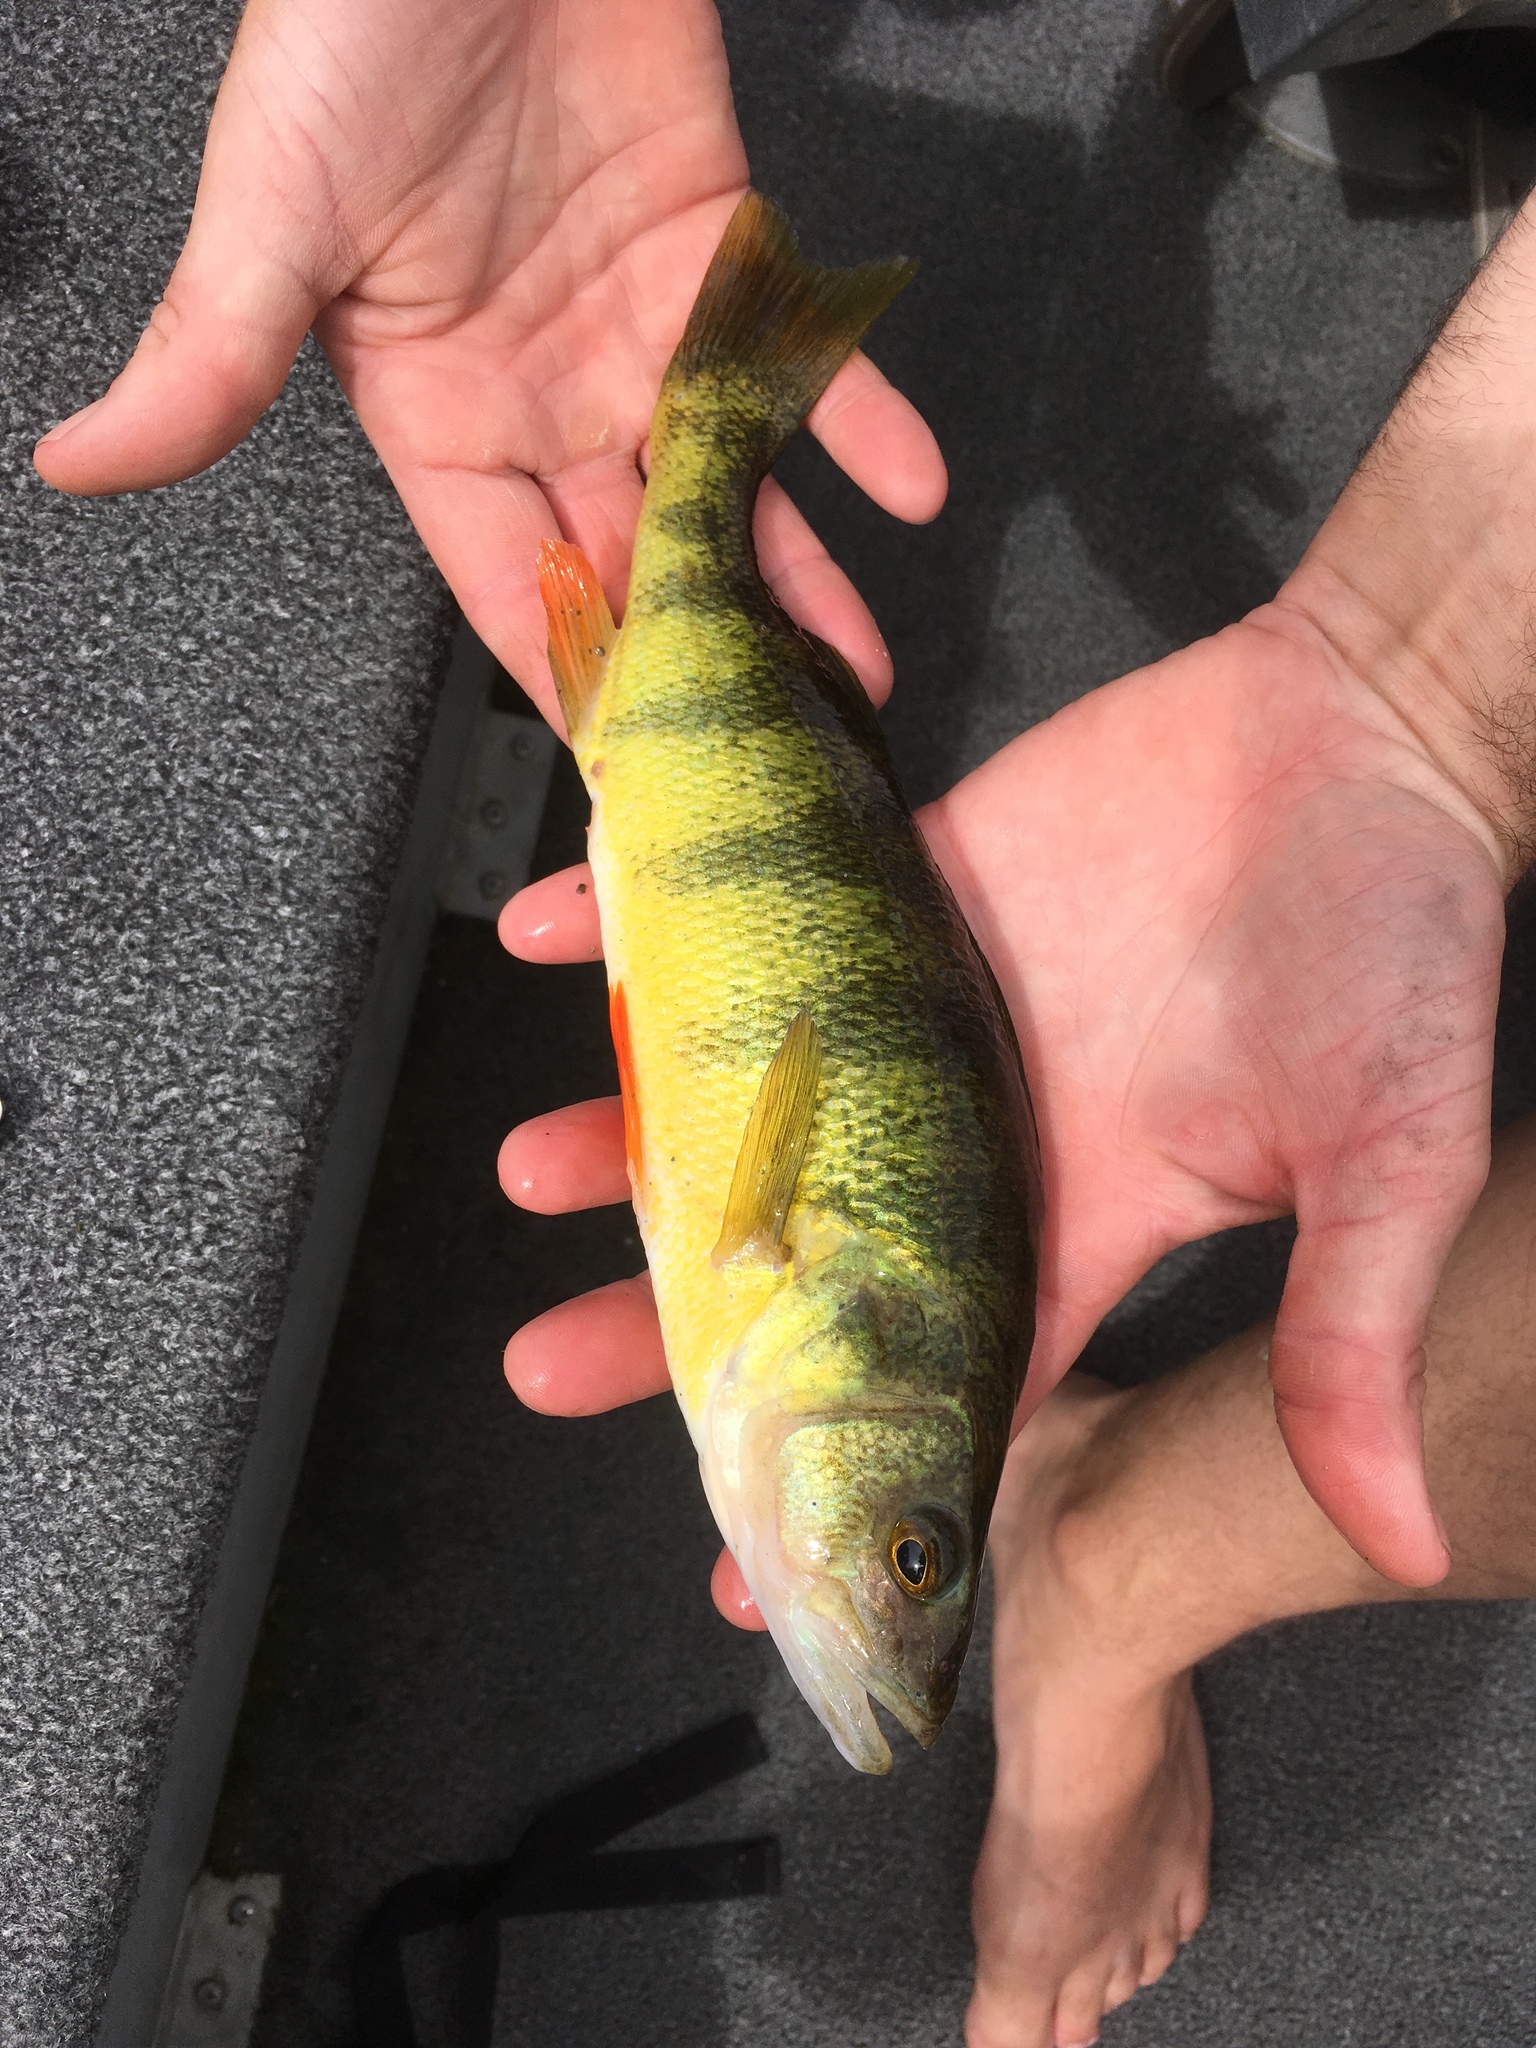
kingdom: Animalia
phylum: Chordata
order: Perciformes
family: Percidae
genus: Perca
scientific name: Perca flavescens
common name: Yellow perch
